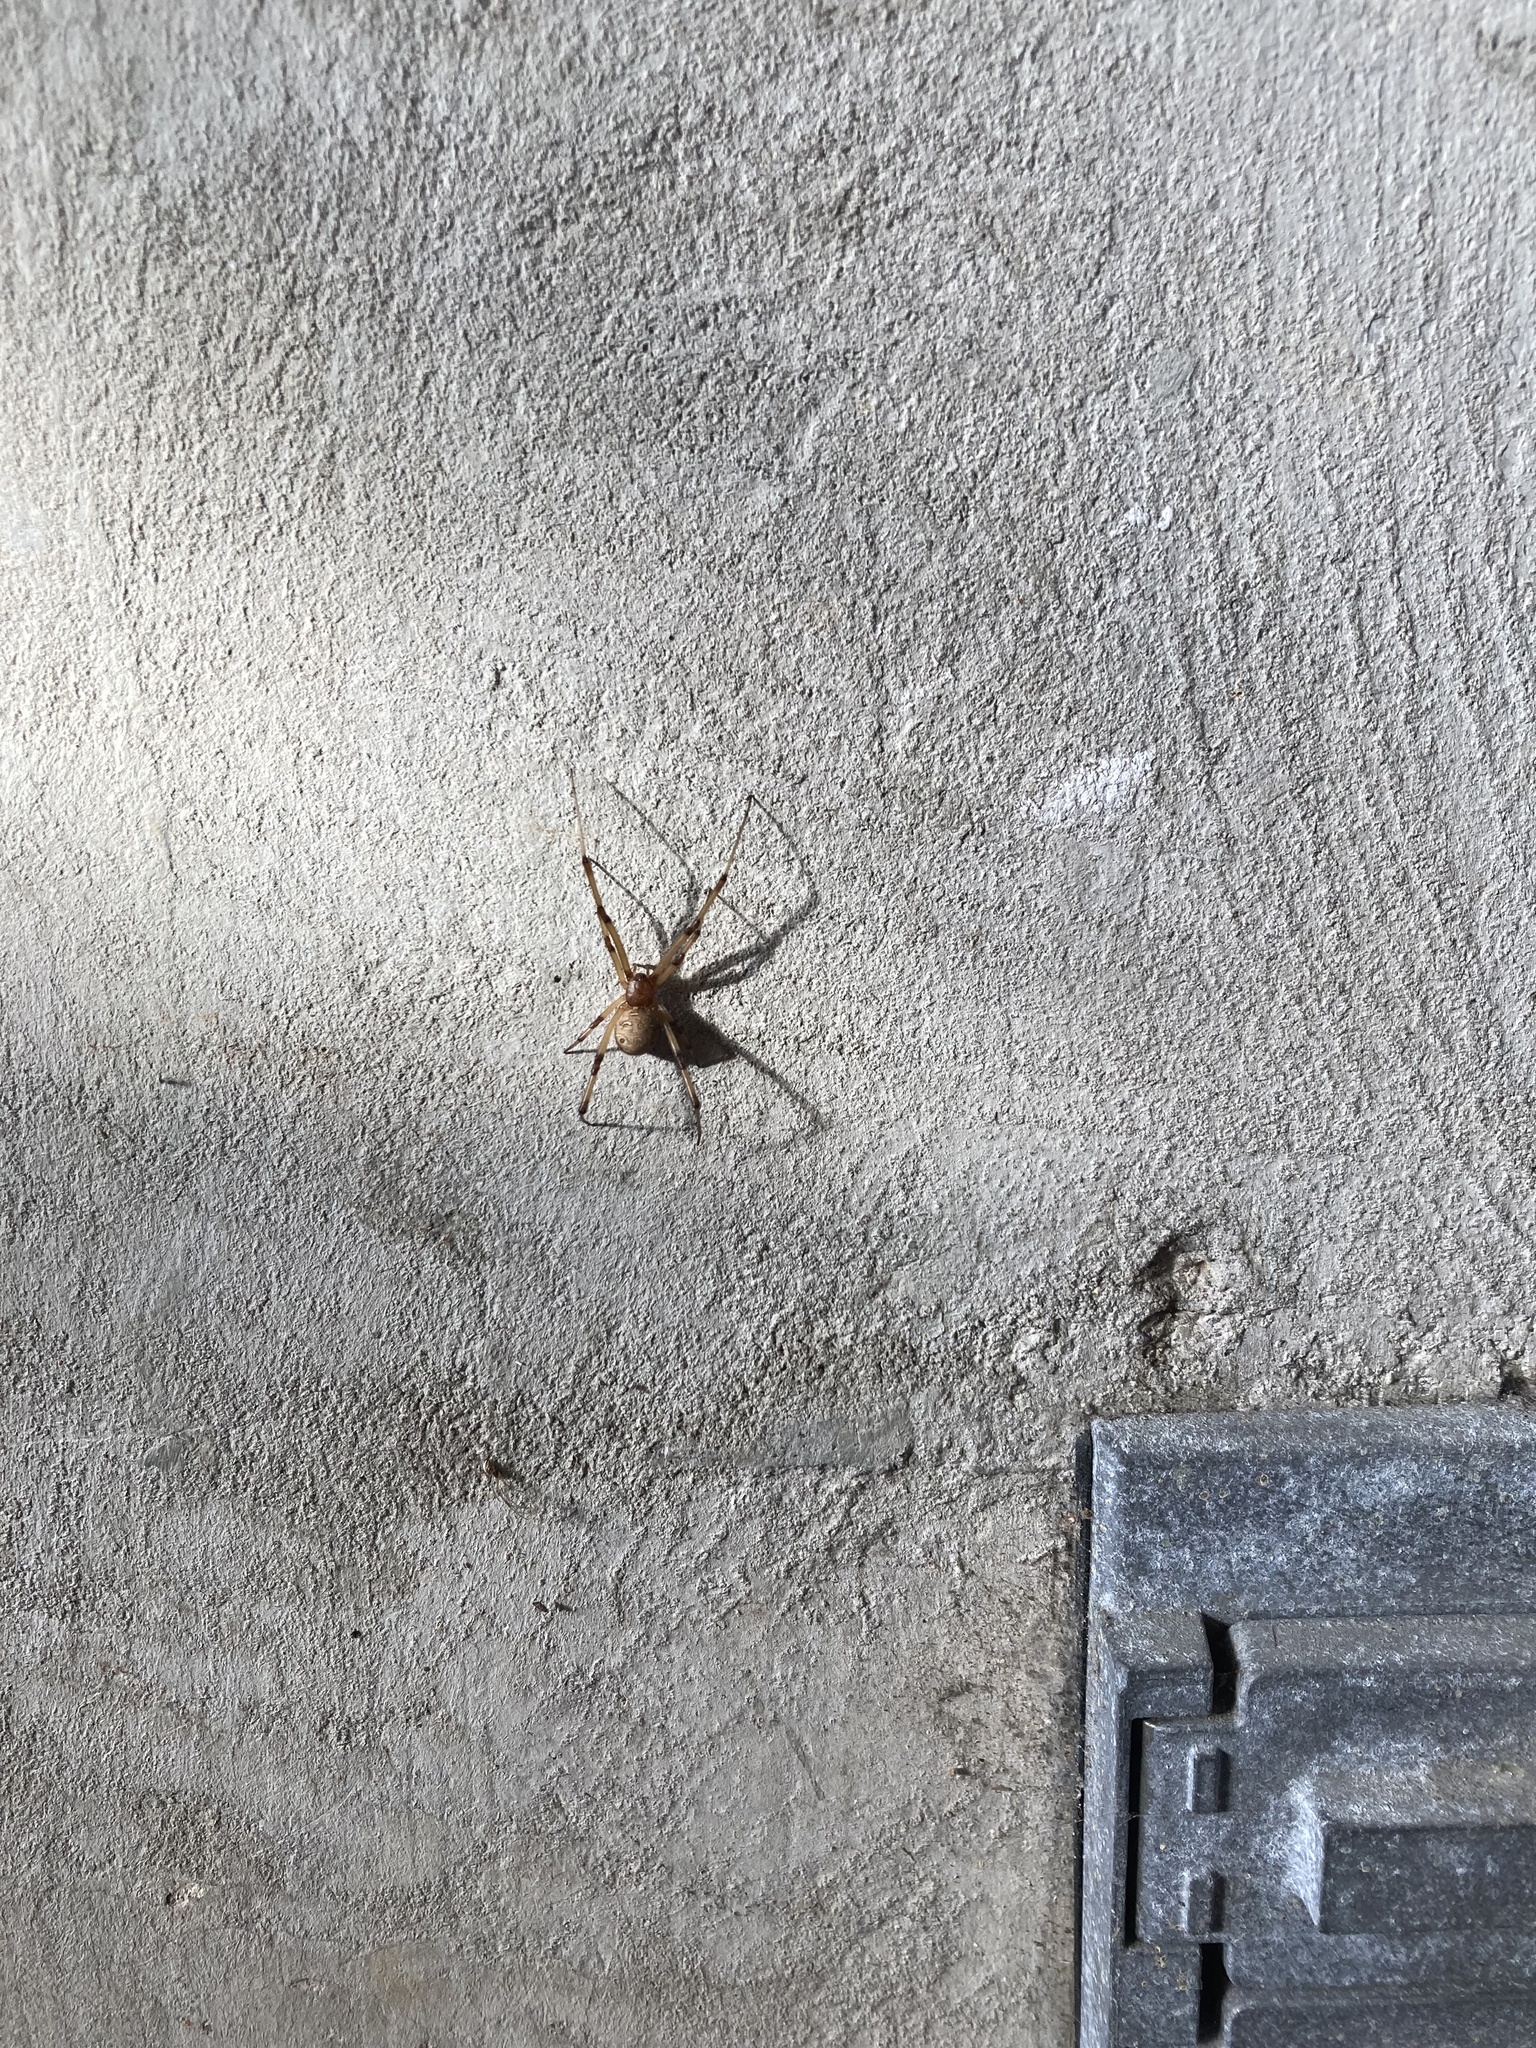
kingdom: Animalia
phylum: Arthropoda
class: Arachnida
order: Araneae
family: Theridiidae
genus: Latrodectus
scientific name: Latrodectus geometricus
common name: Brown widow spider
